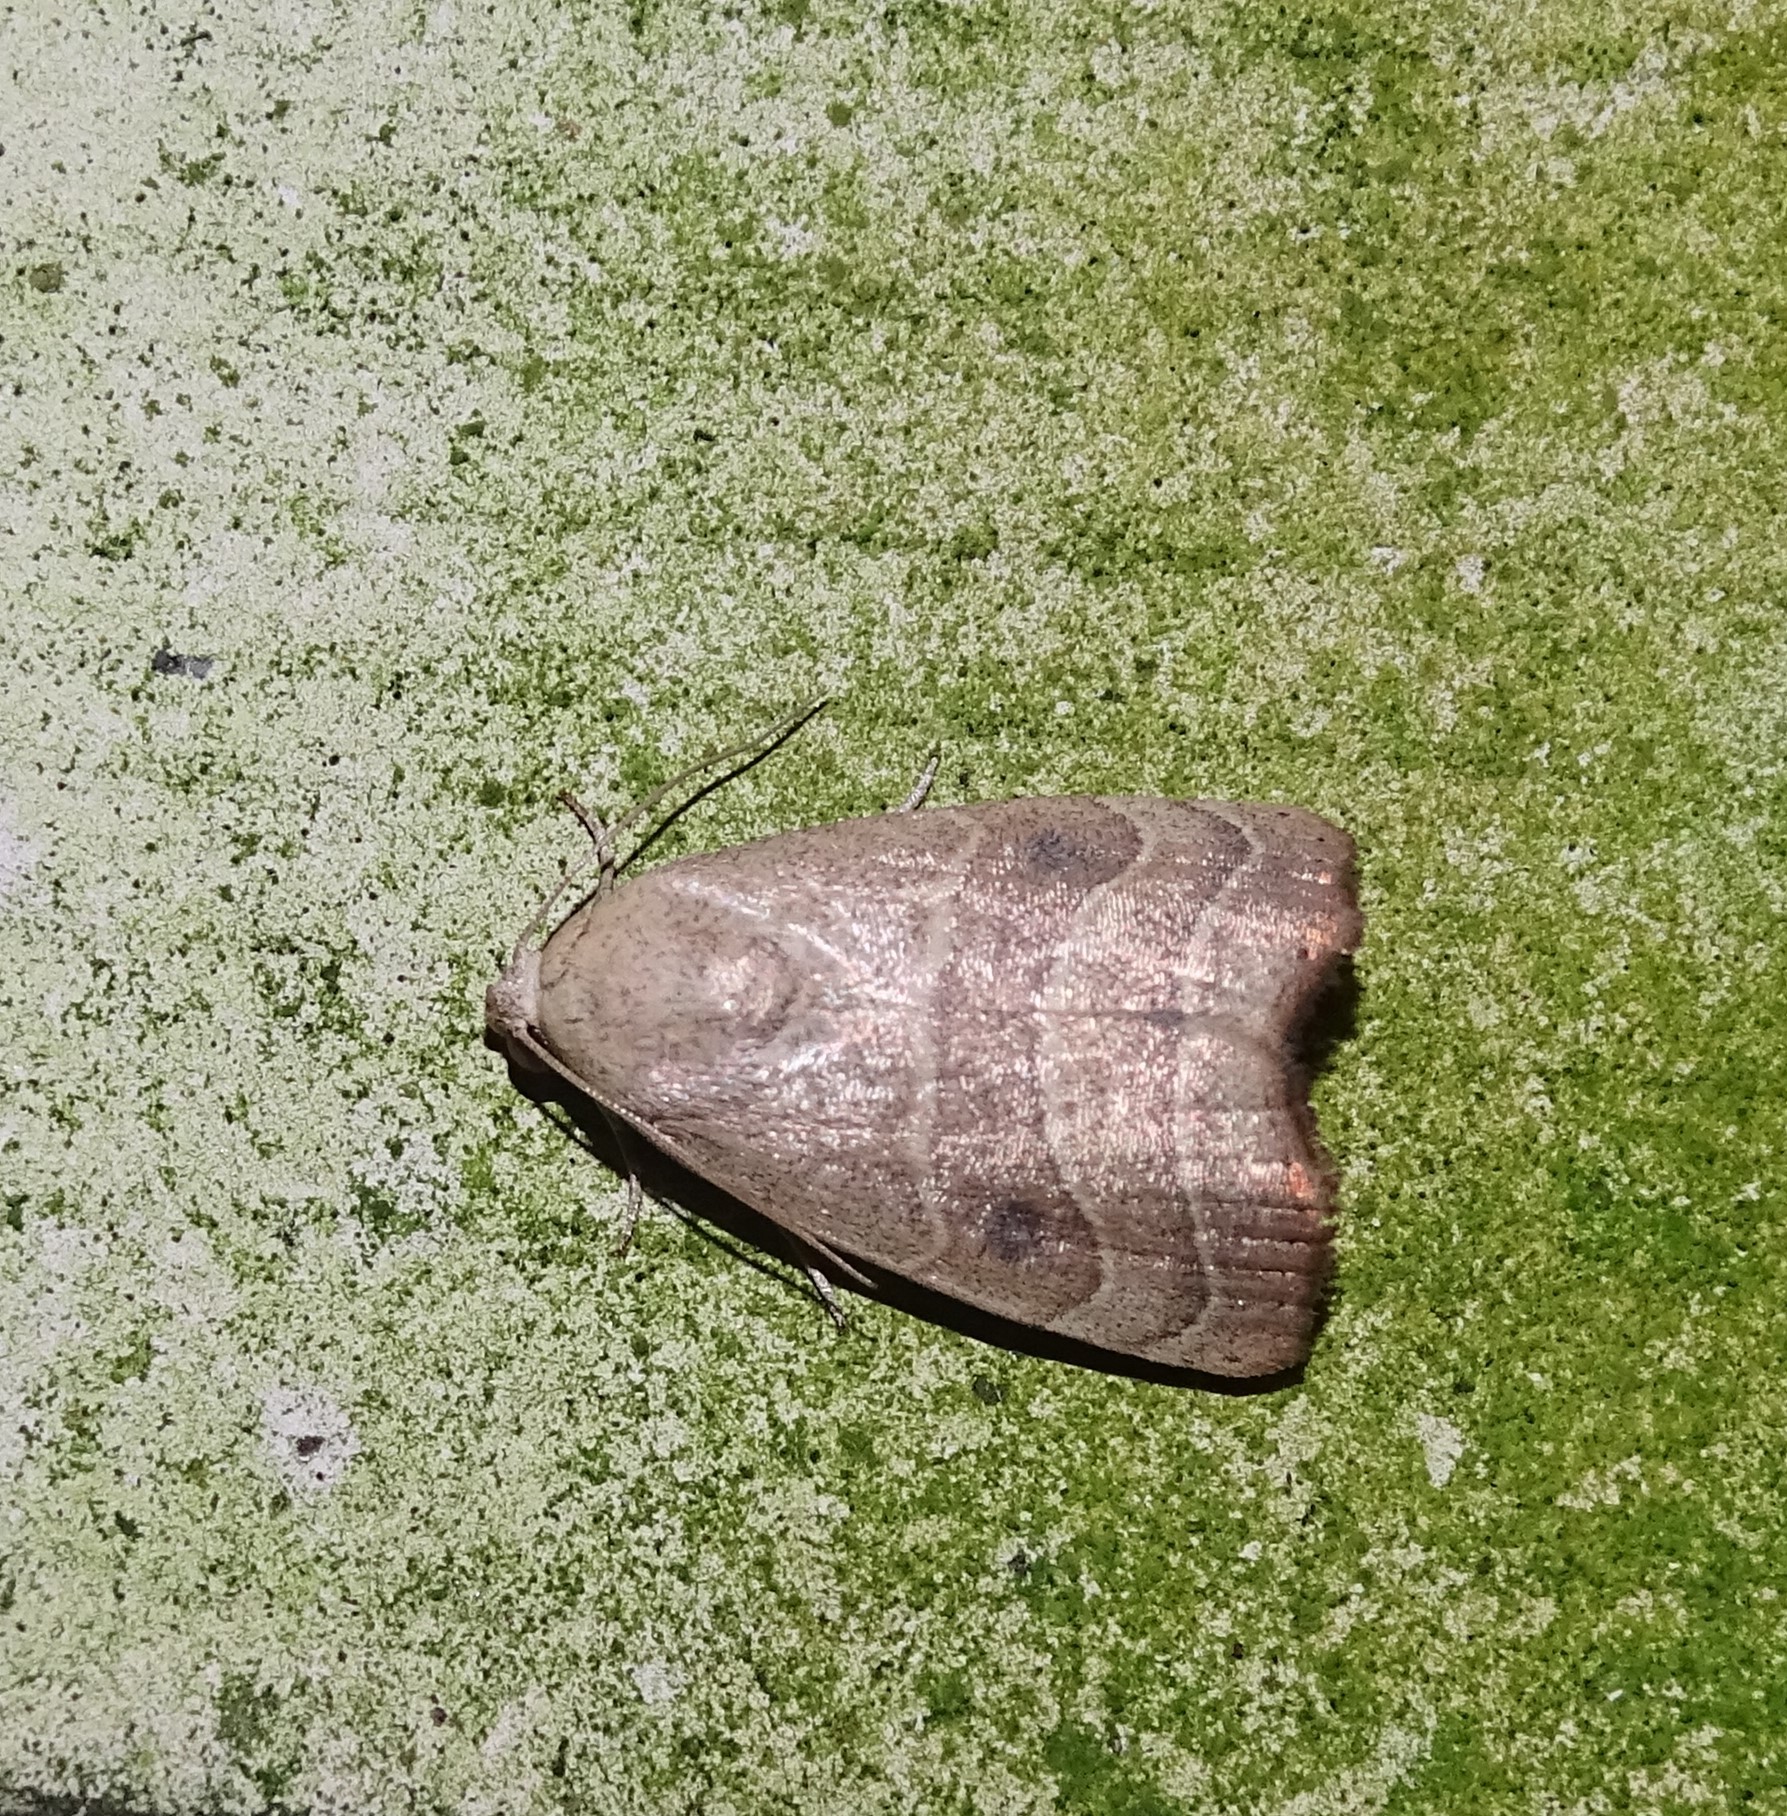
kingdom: Animalia
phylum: Arthropoda
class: Insecta
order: Lepidoptera
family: Noctuidae
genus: Bagisara
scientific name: Bagisara repanda
